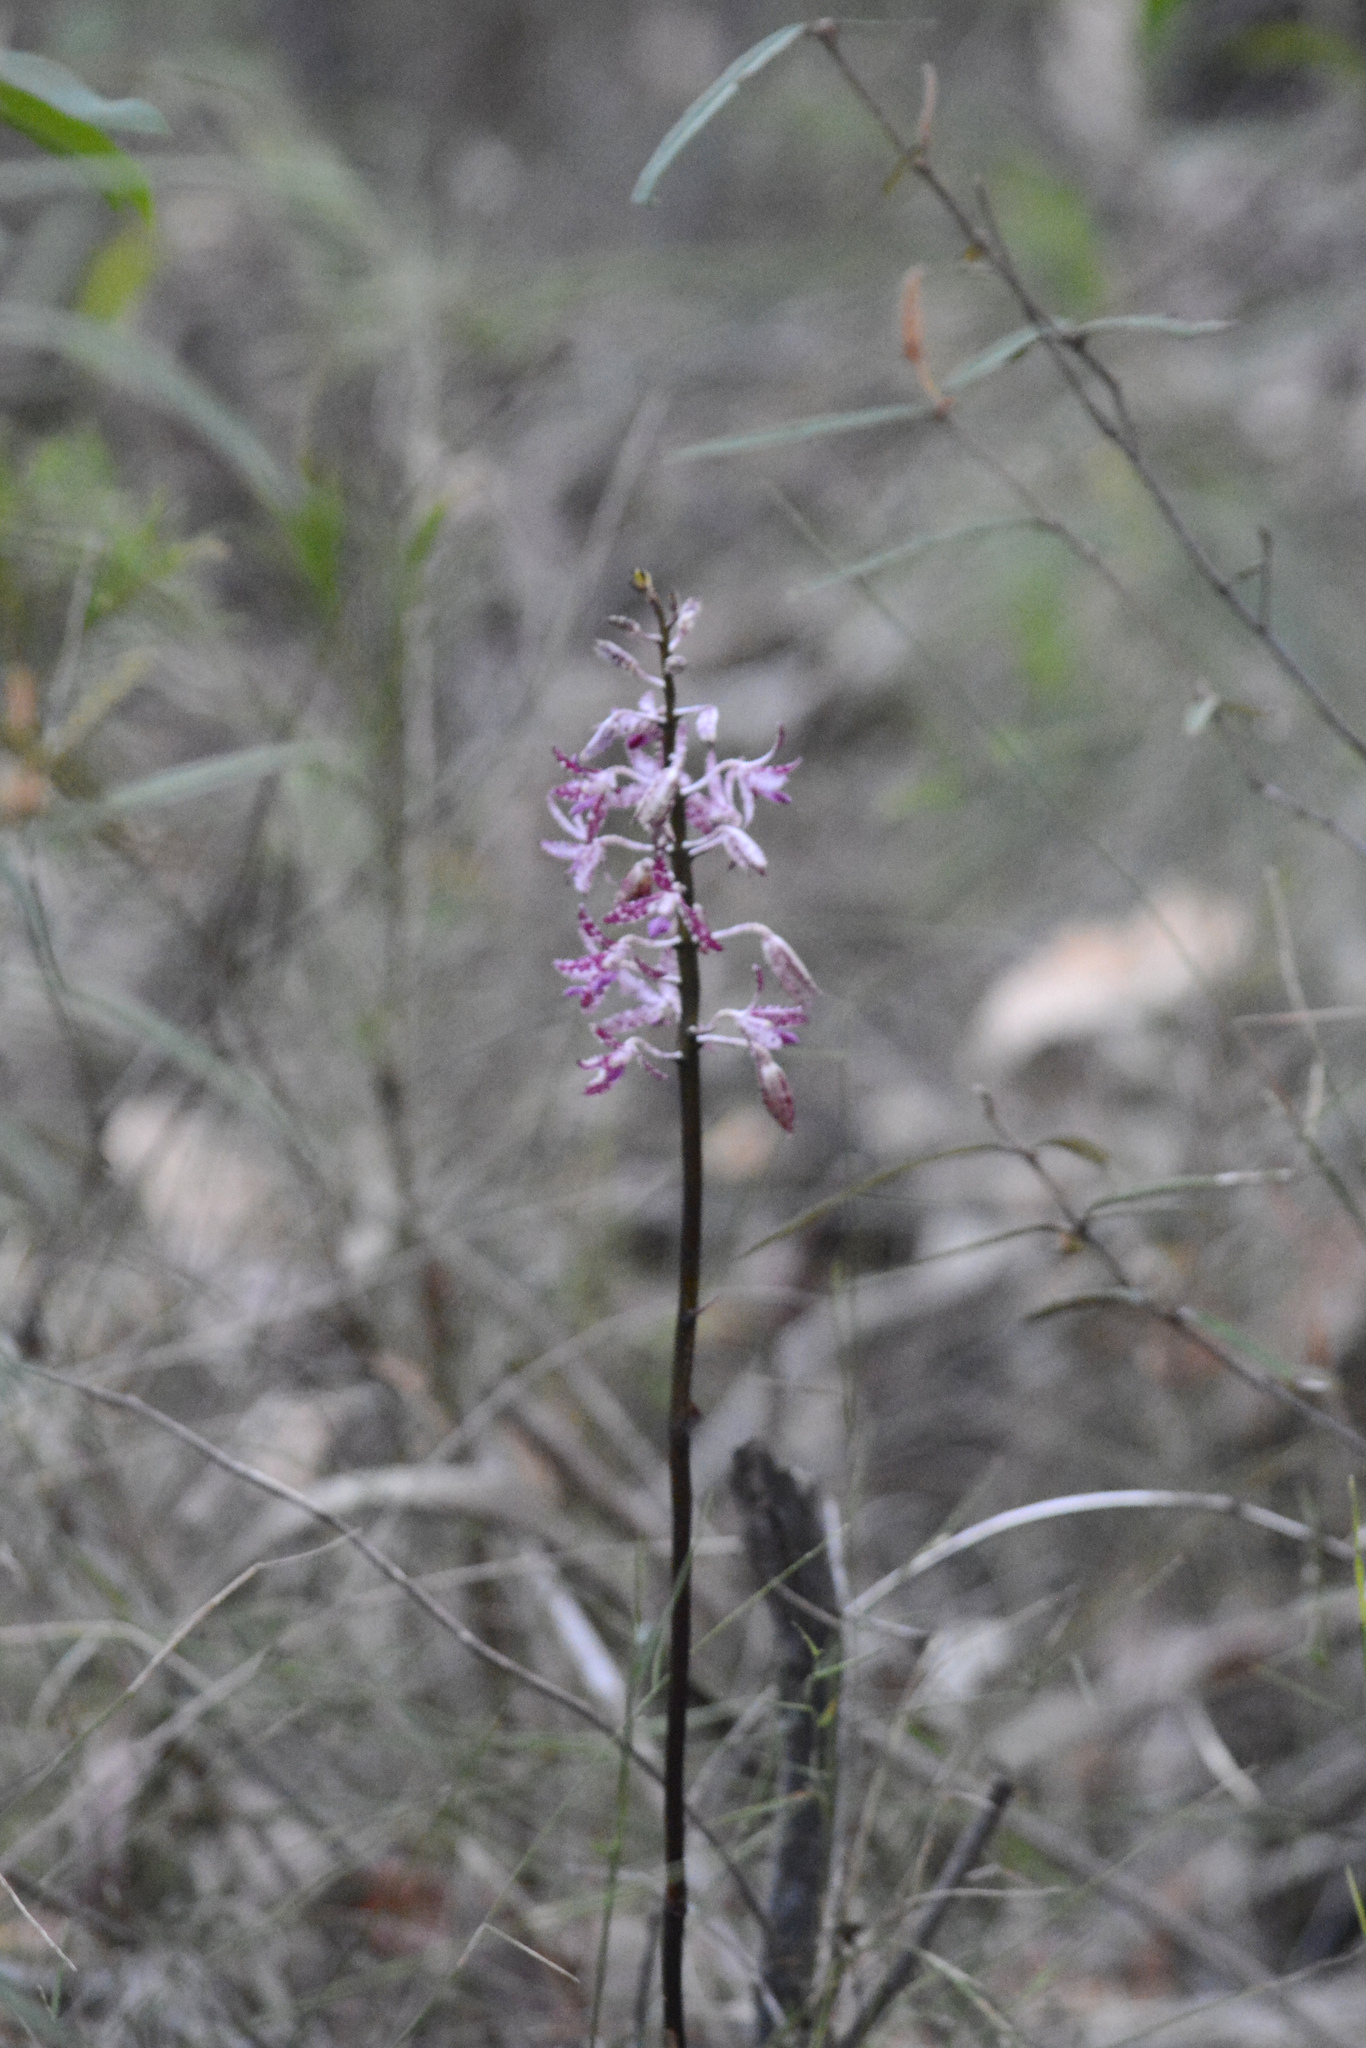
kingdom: Plantae
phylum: Tracheophyta
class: Liliopsida
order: Asparagales
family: Orchidaceae
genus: Dipodium
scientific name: Dipodium variegatum
